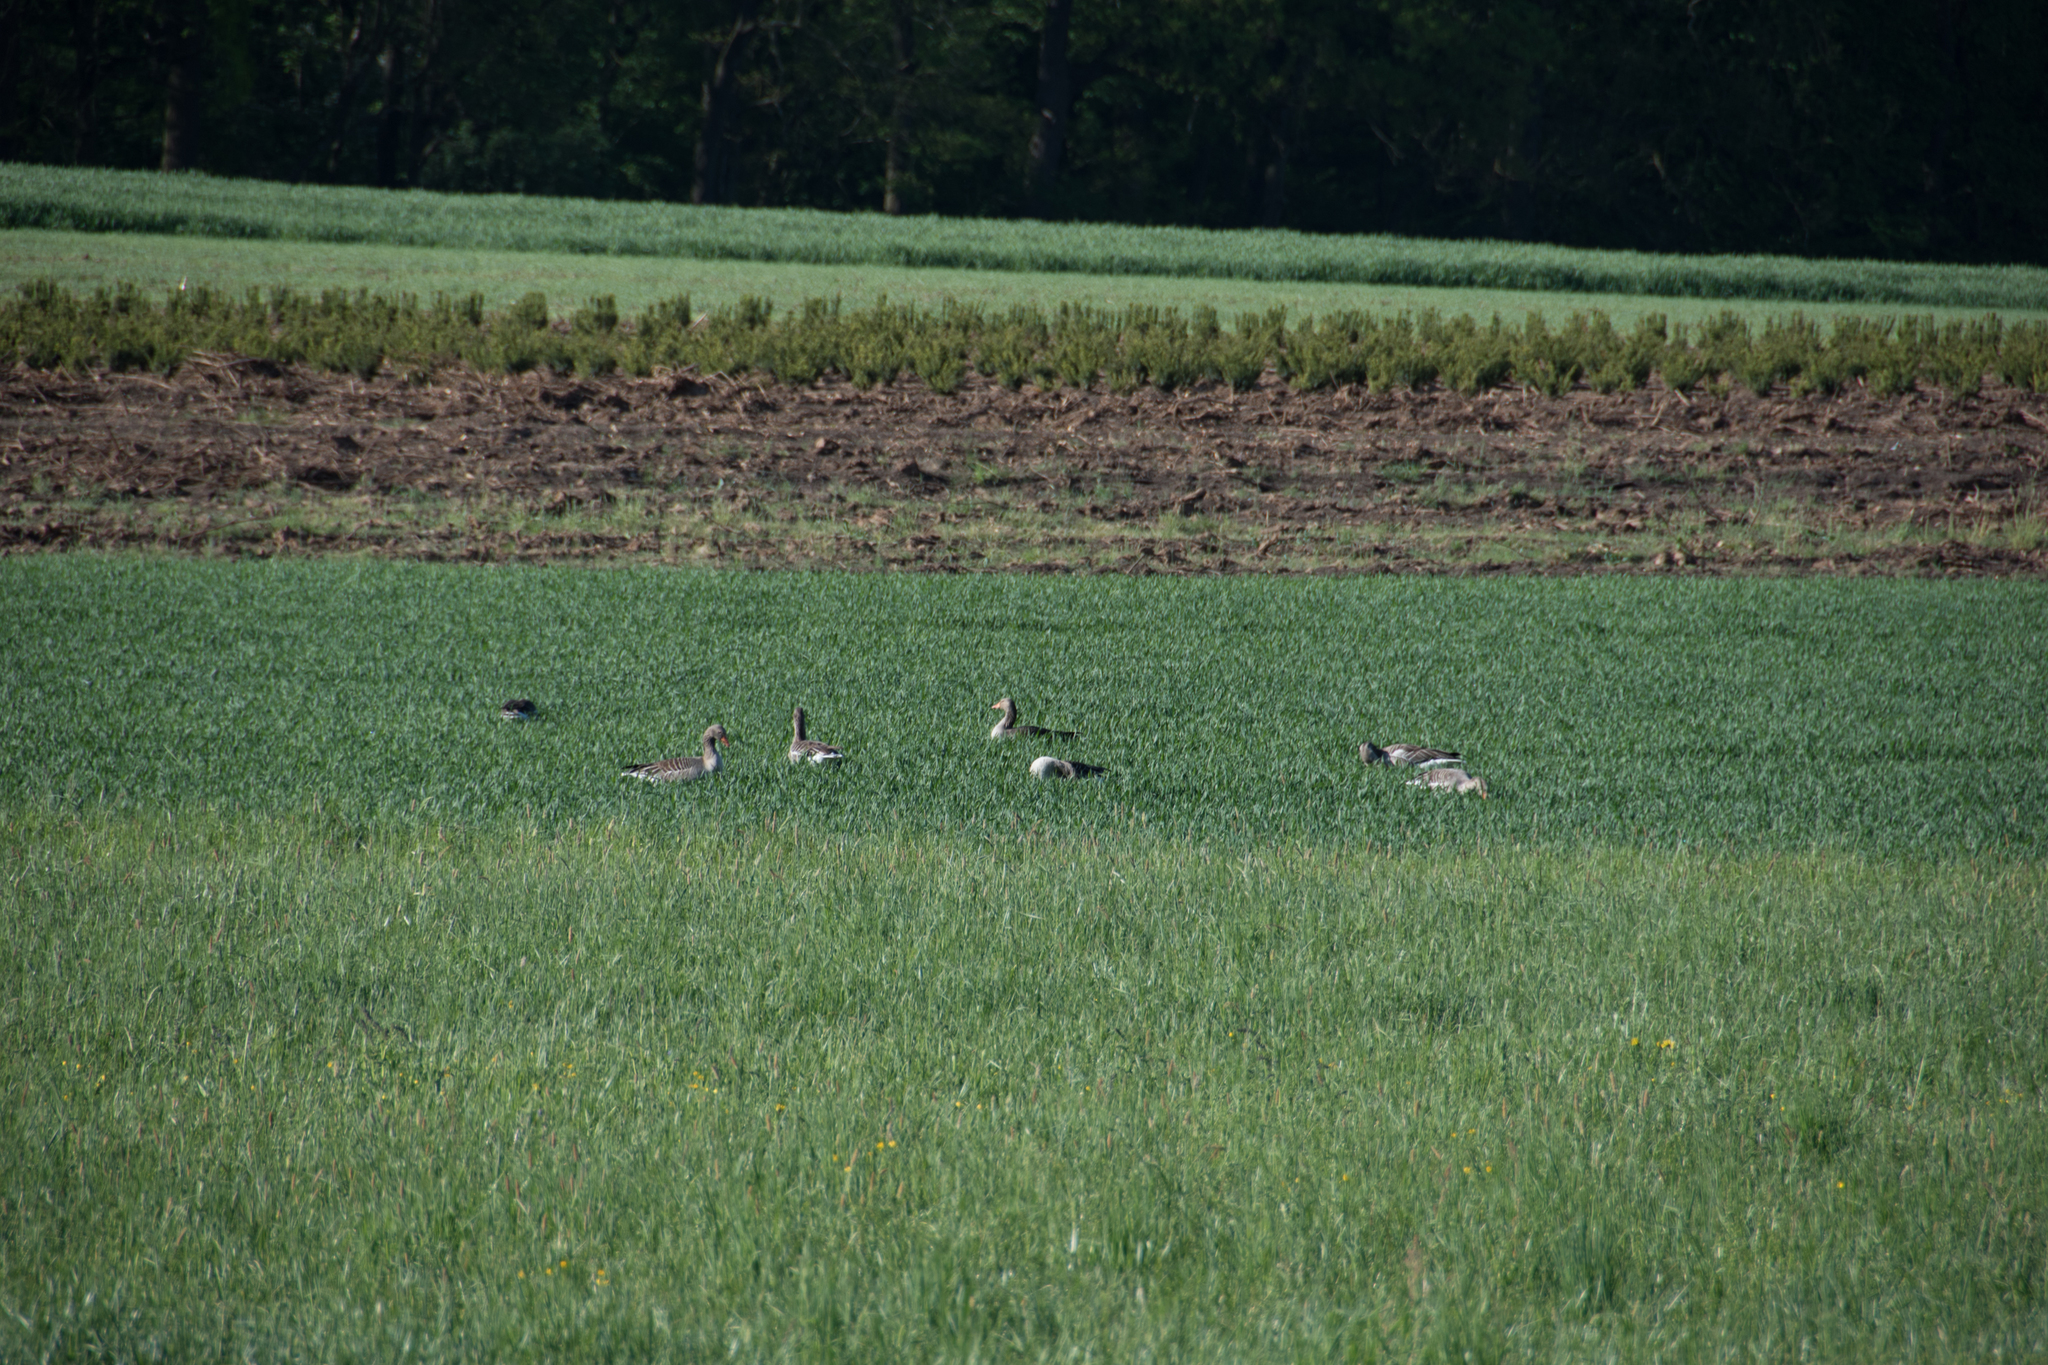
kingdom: Animalia
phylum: Chordata
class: Aves
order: Anseriformes
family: Anatidae
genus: Anser
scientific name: Anser anser
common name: Greylag goose
